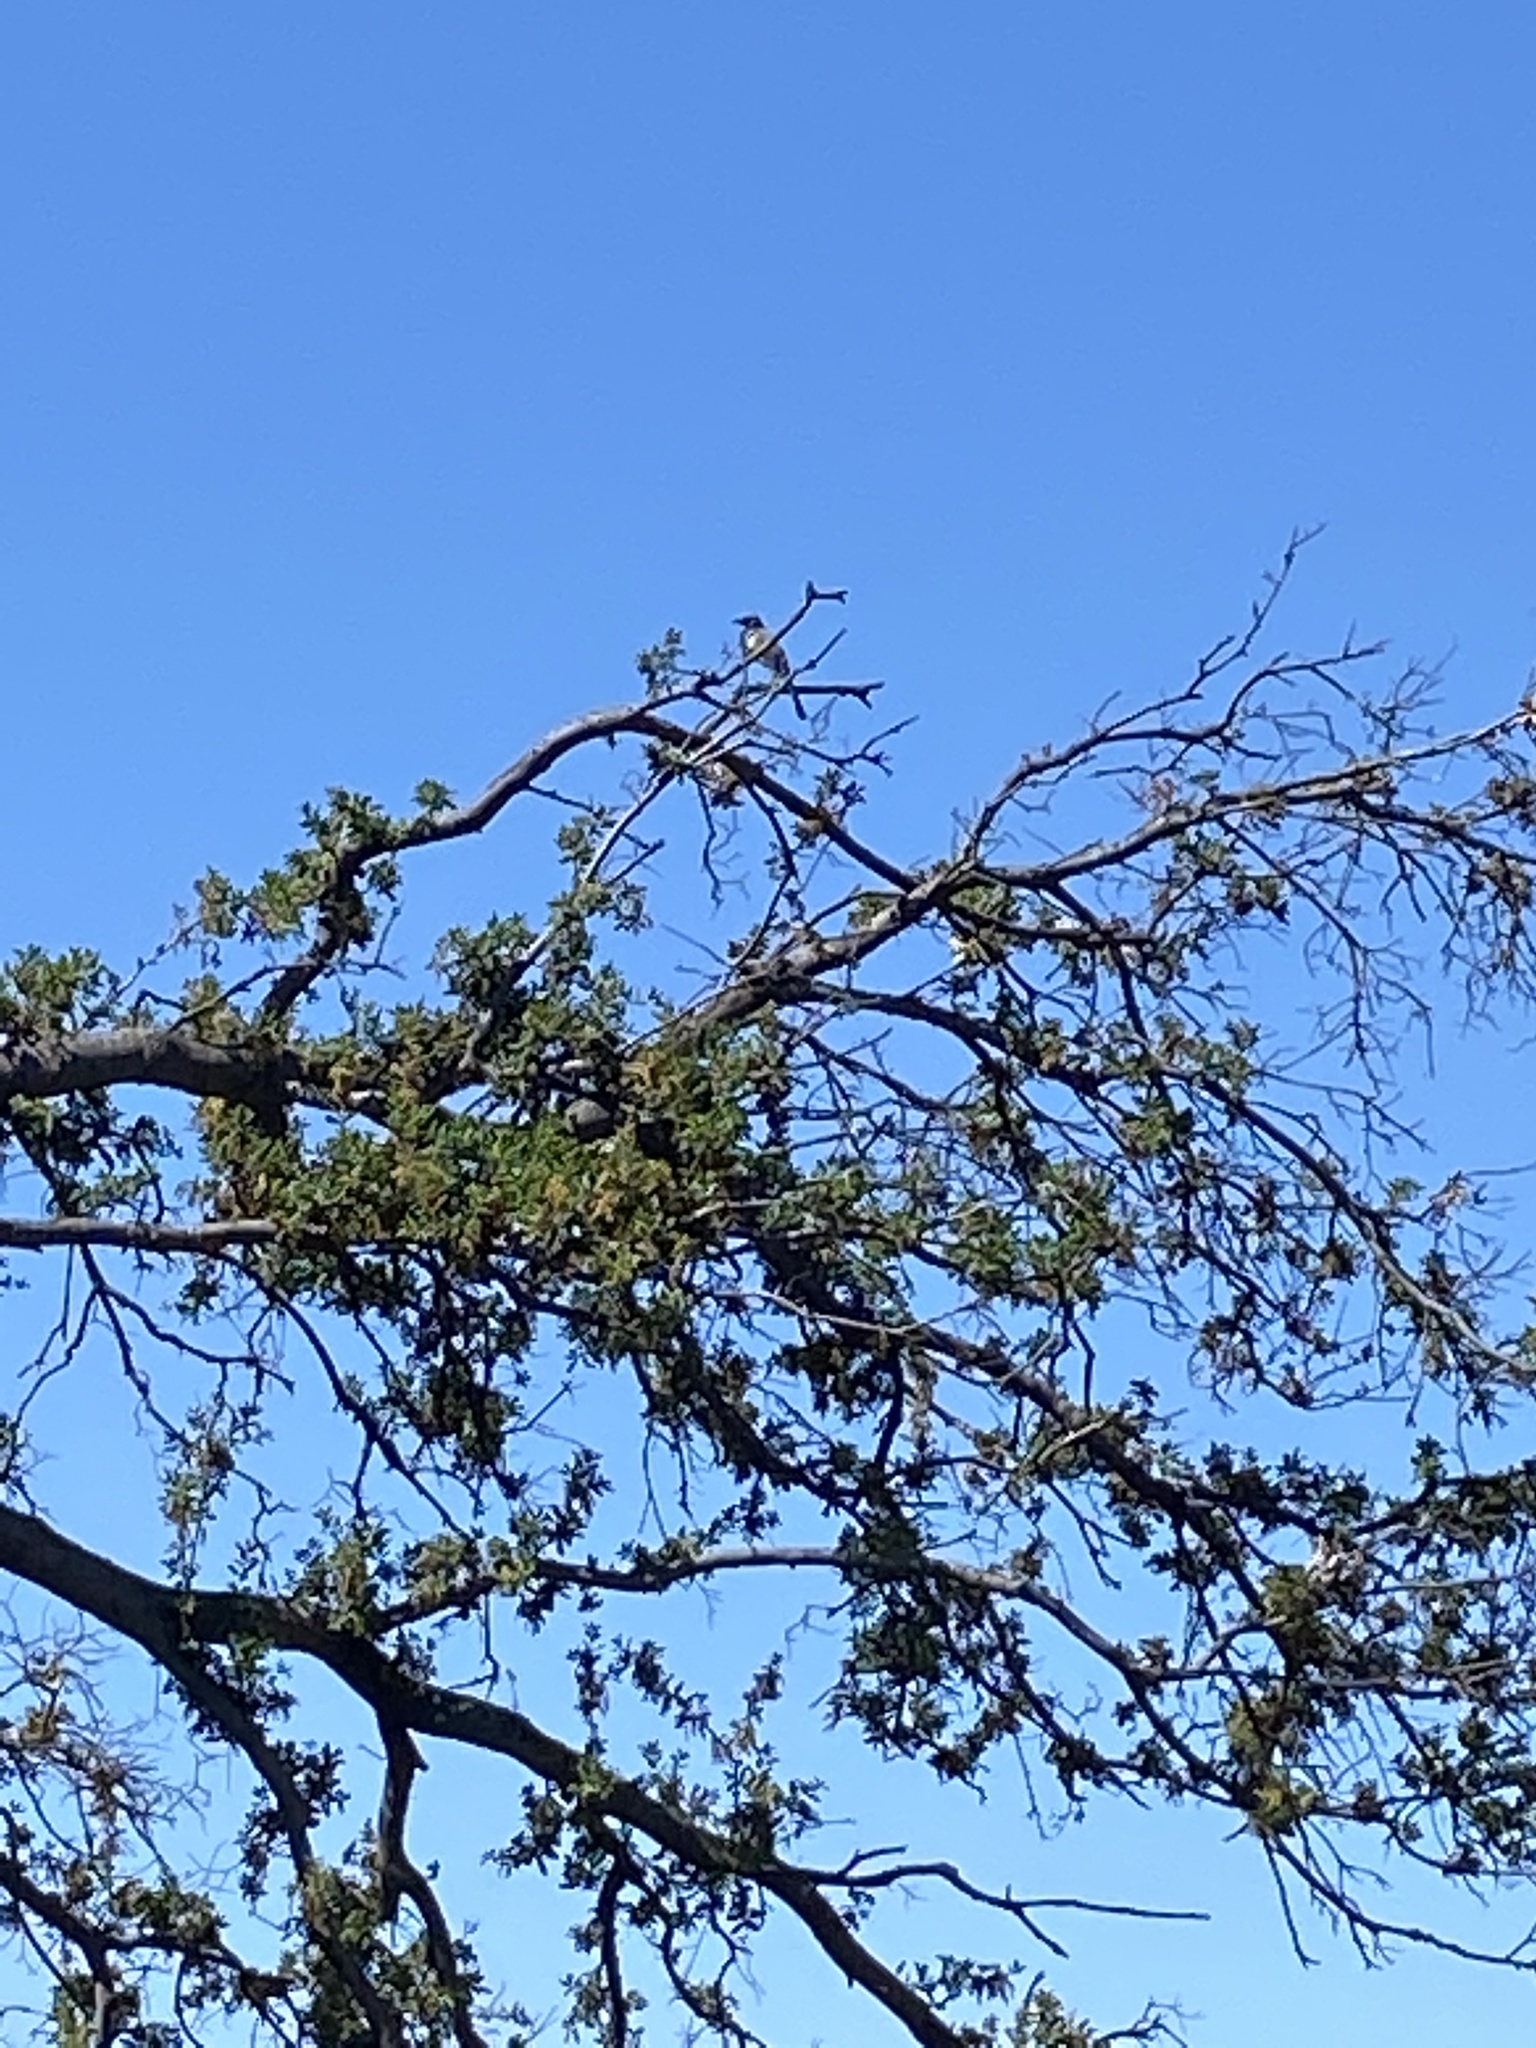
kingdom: Animalia
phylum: Chordata
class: Aves
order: Passeriformes
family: Corvidae
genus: Aphelocoma
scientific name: Aphelocoma californica
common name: California scrub-jay
